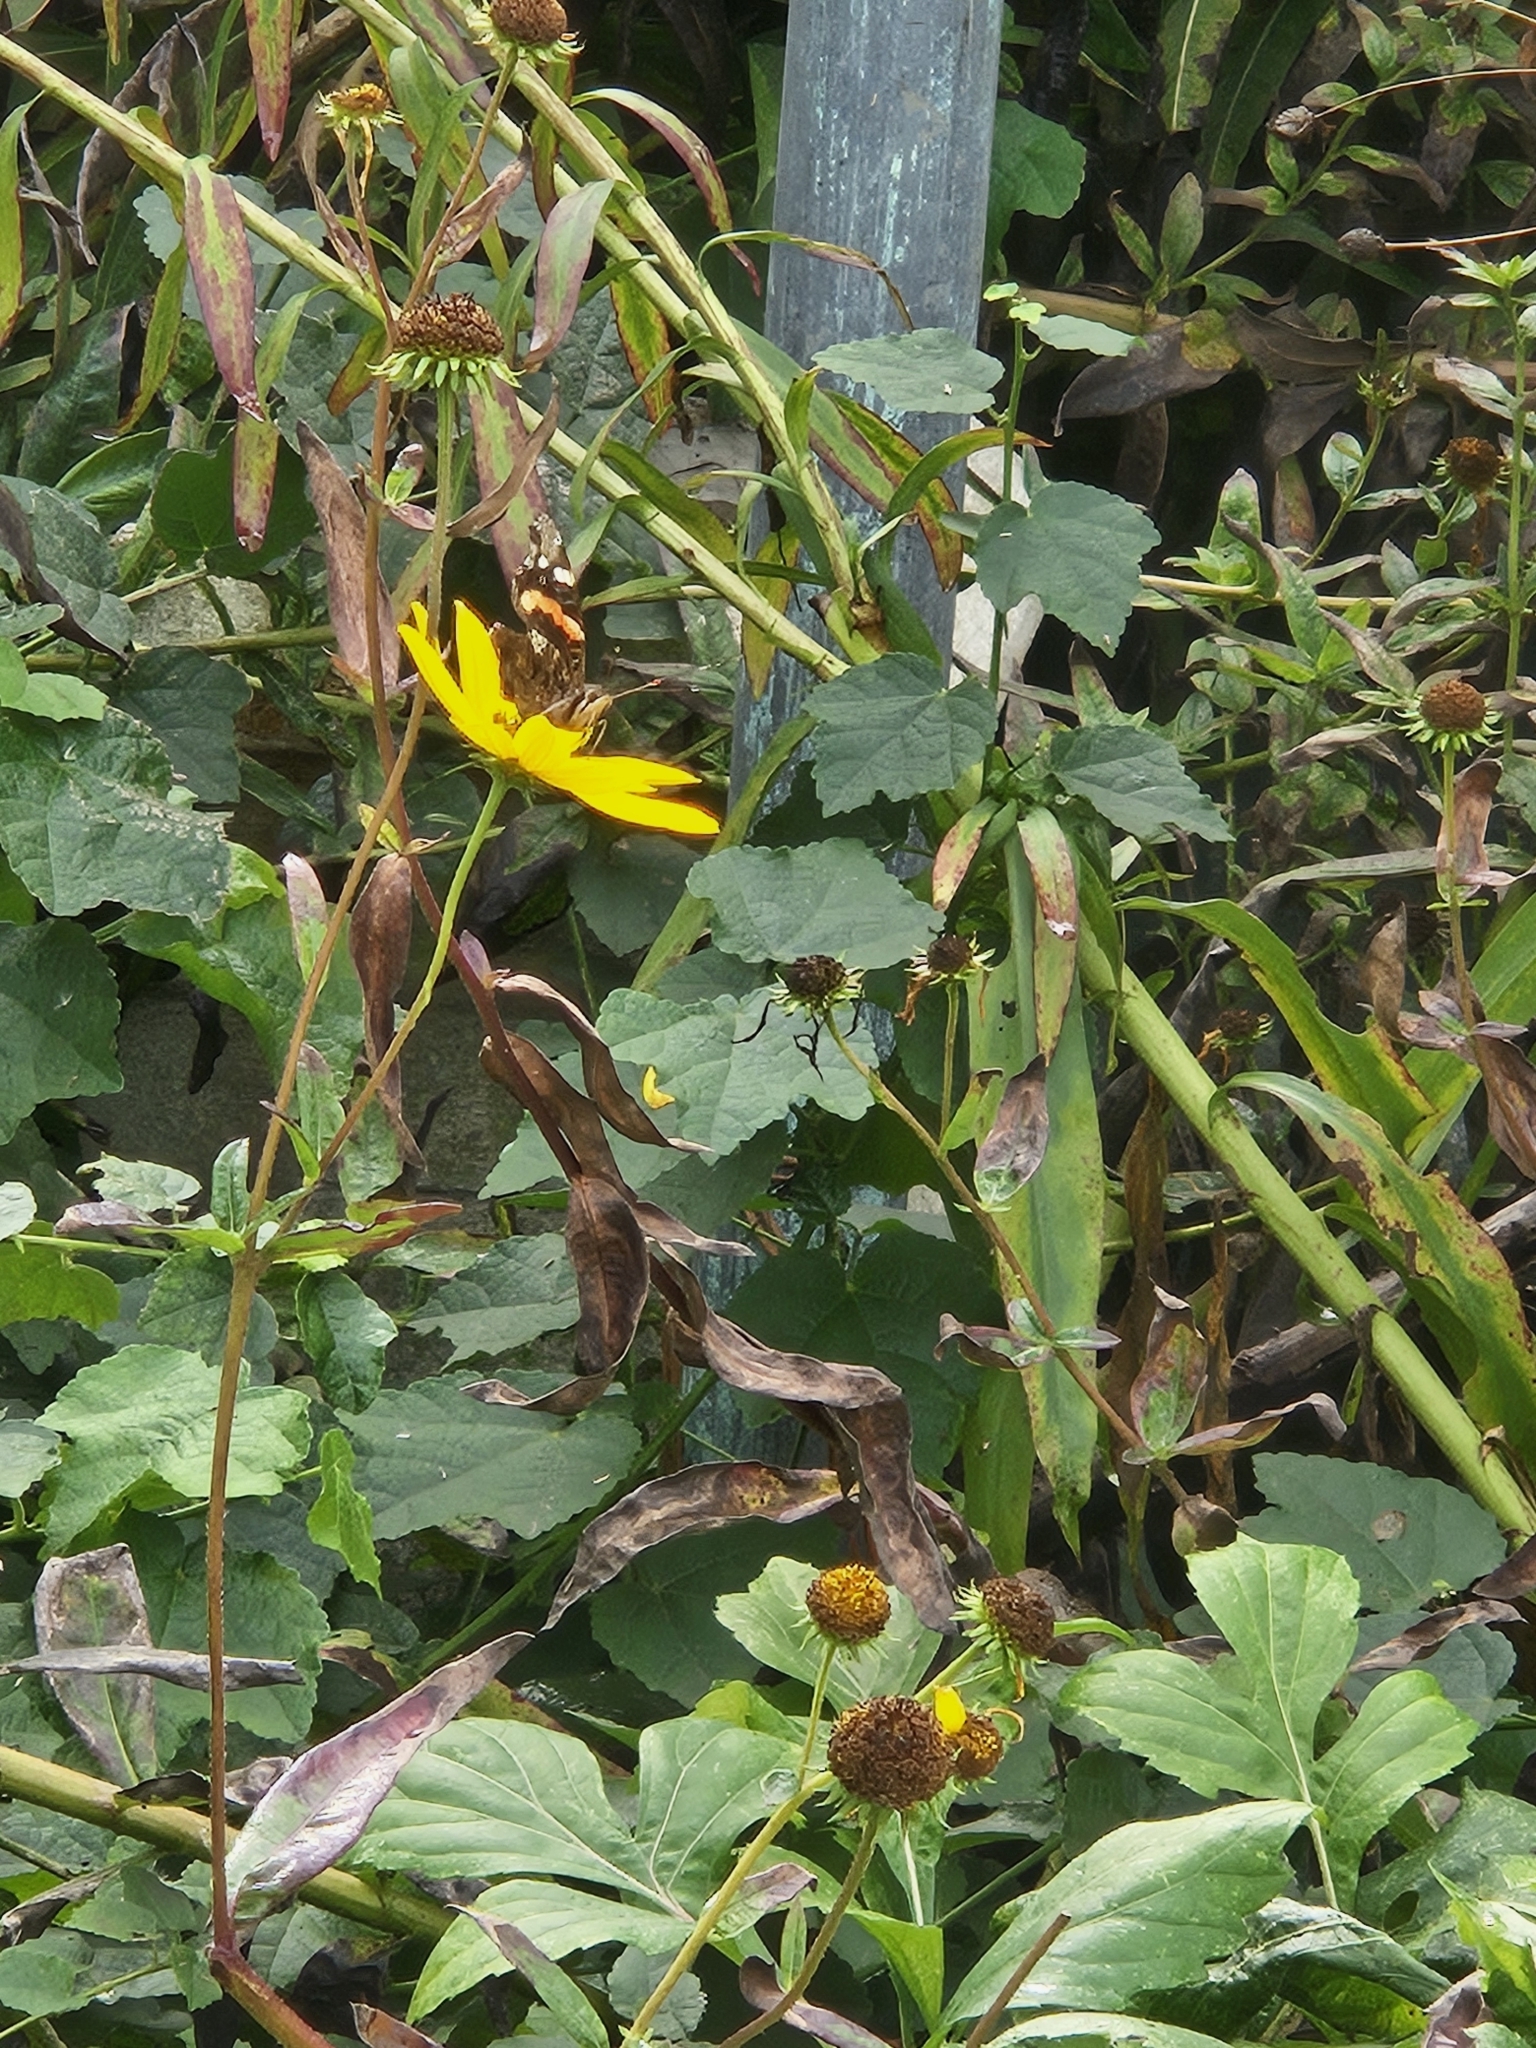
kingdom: Animalia
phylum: Arthropoda
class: Insecta
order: Lepidoptera
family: Nymphalidae
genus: Vanessa
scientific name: Vanessa atalanta
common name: Red admiral
